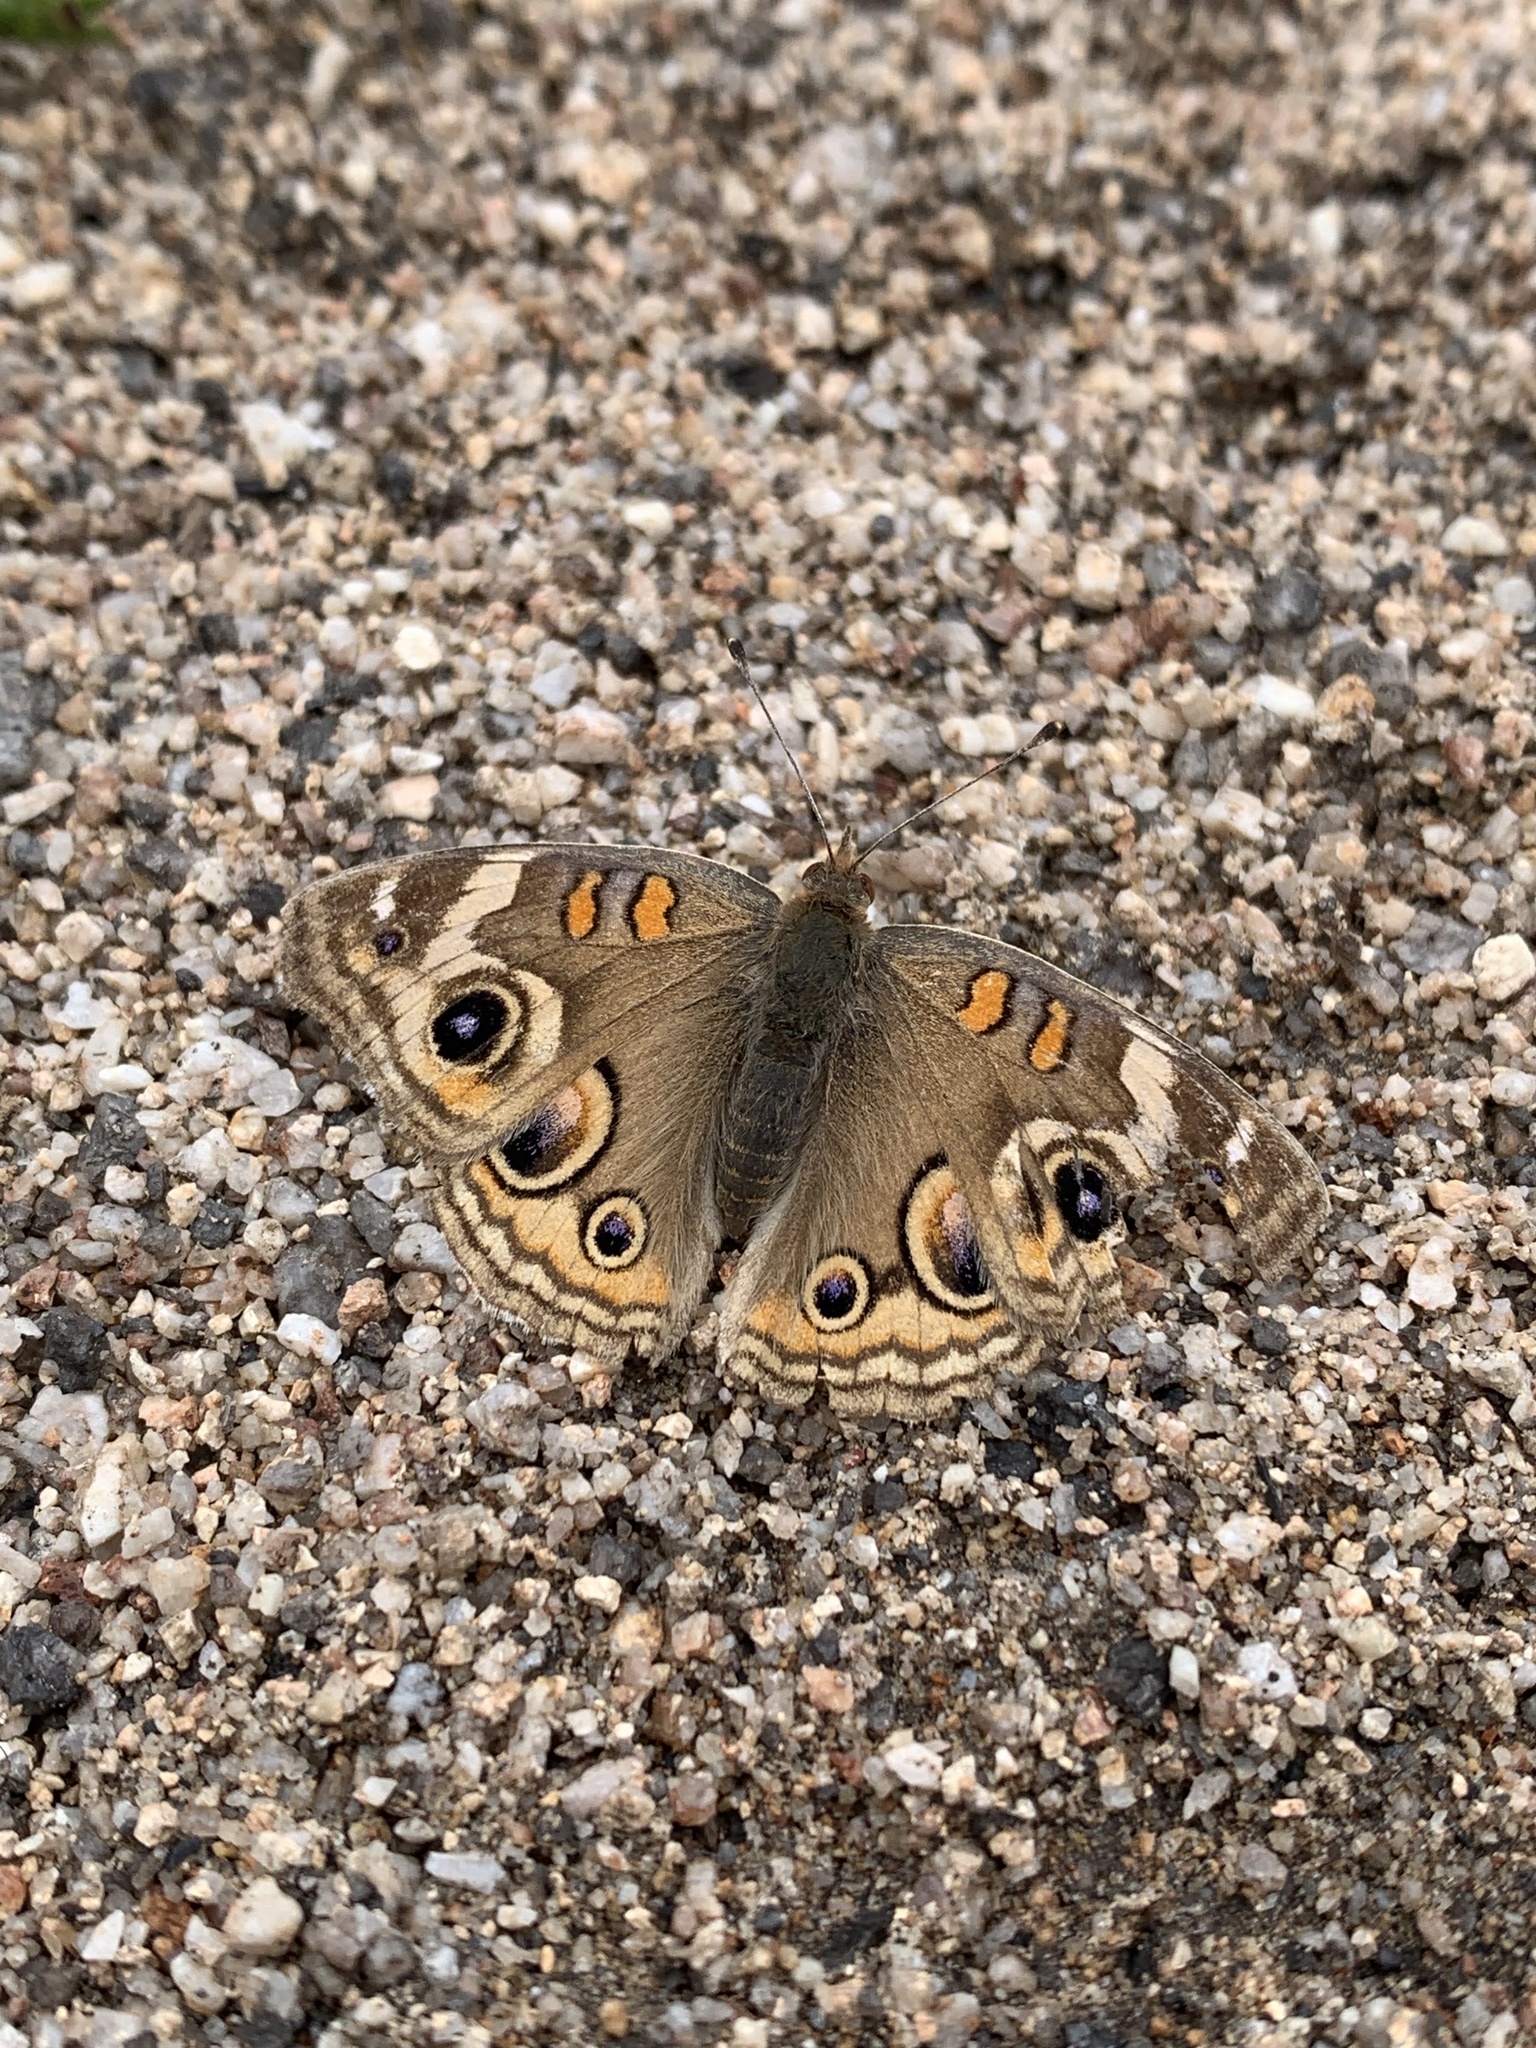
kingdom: Animalia
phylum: Arthropoda
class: Insecta
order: Lepidoptera
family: Nymphalidae
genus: Junonia
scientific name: Junonia grisea
